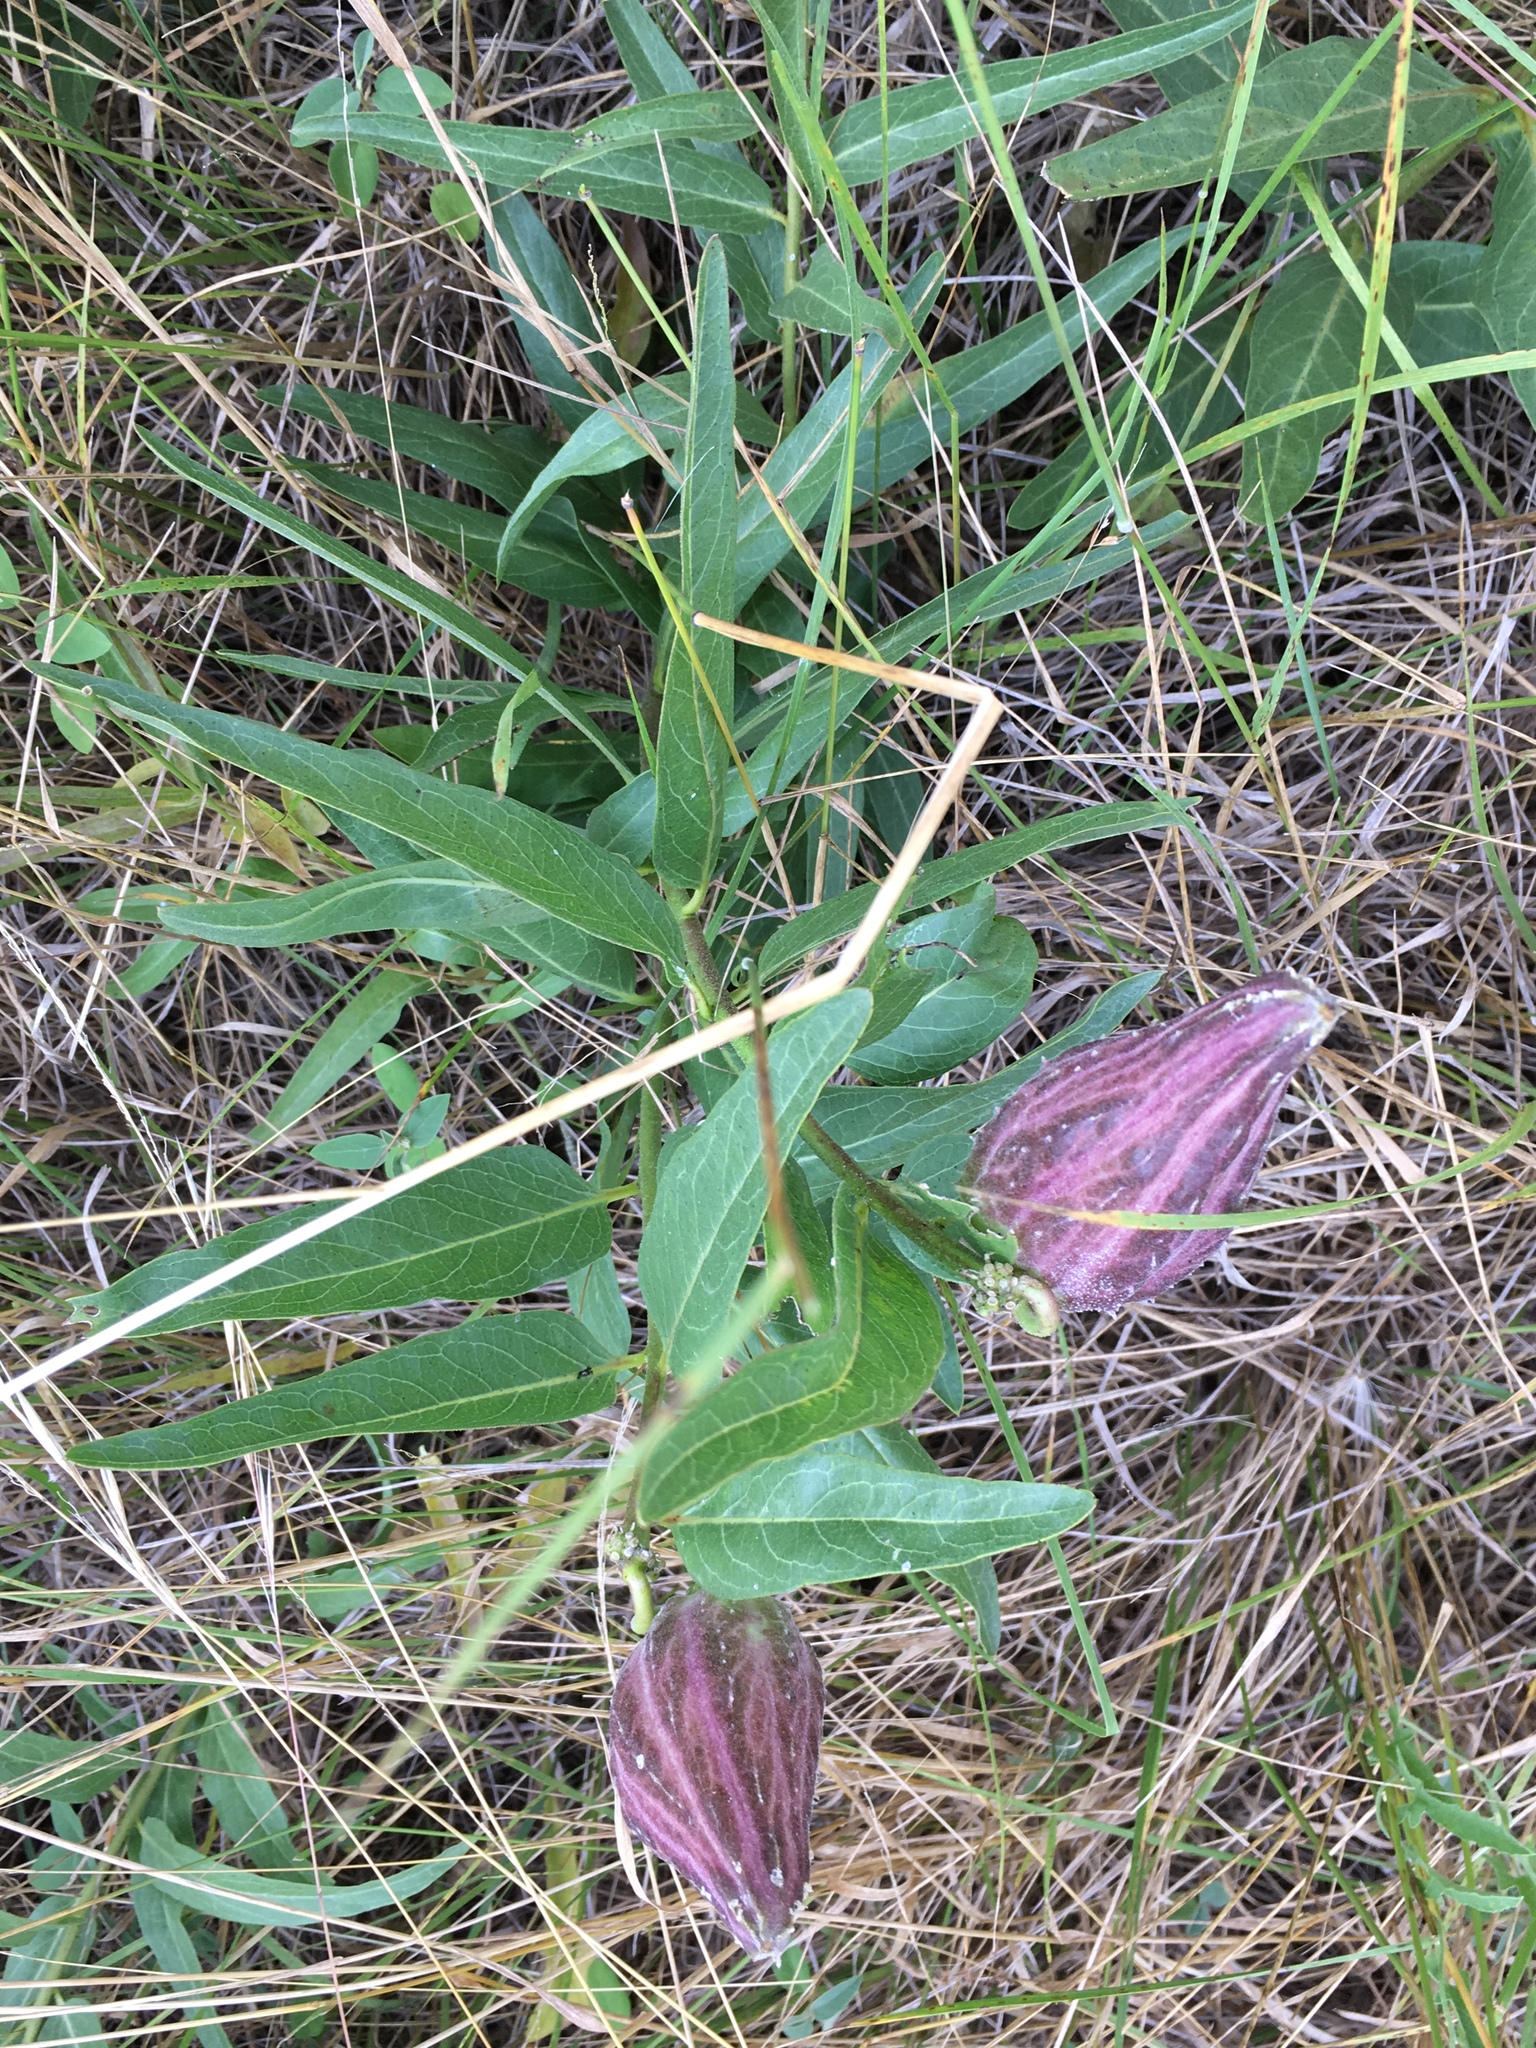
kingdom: Plantae
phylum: Tracheophyta
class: Magnoliopsida
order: Gentianales
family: Apocynaceae
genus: Asclepias
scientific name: Asclepias asperula
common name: Antelope horns
